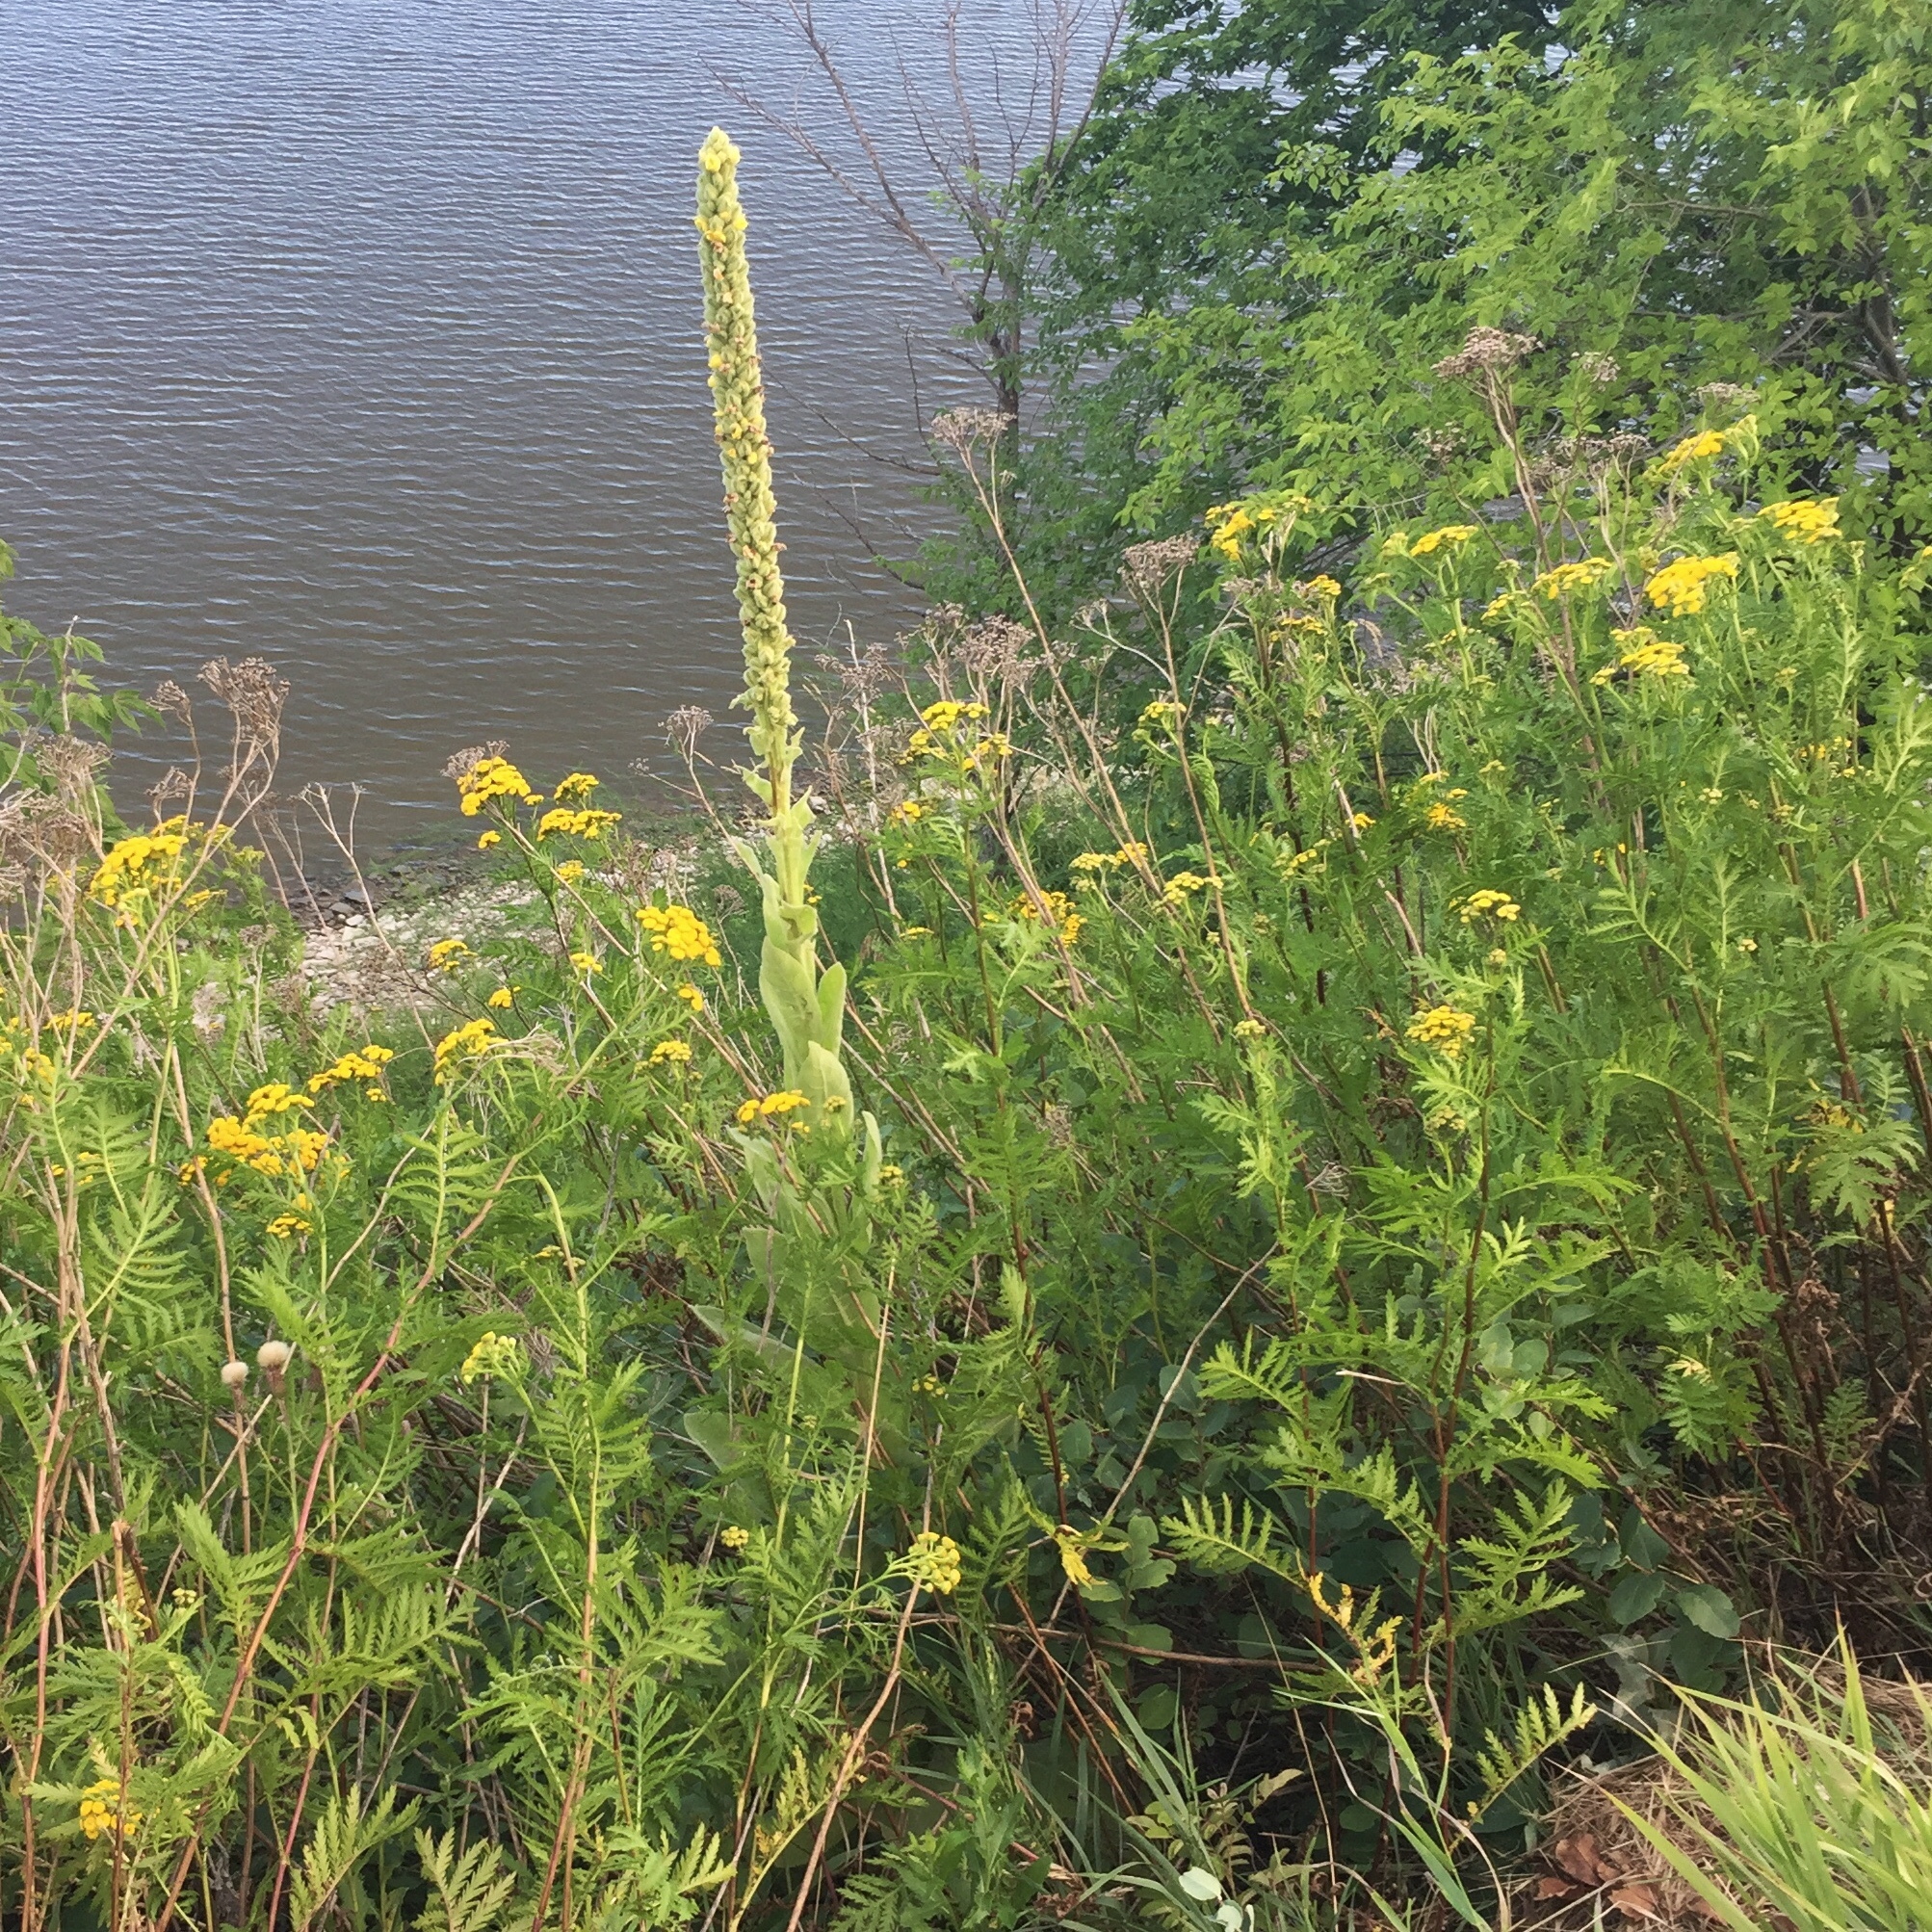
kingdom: Plantae
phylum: Tracheophyta
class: Magnoliopsida
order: Lamiales
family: Scrophulariaceae
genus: Verbascum
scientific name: Verbascum thapsus
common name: Common mullein
